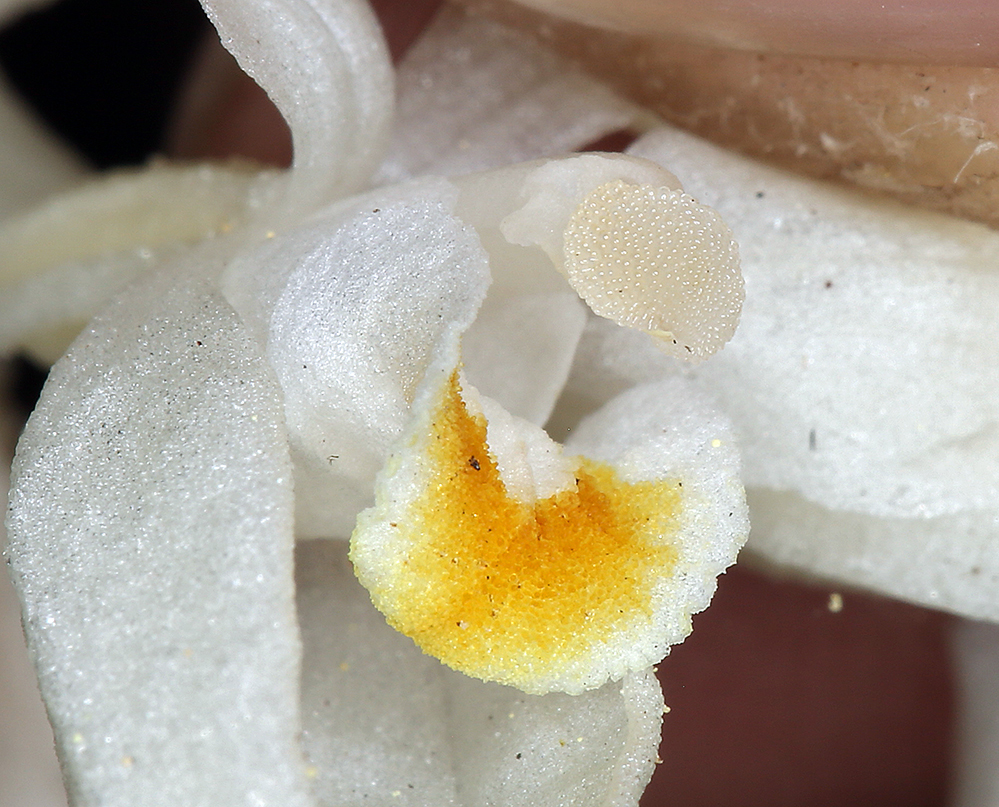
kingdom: Plantae
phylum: Tracheophyta
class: Liliopsida
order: Asparagales
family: Orchidaceae
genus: Cephalanthera
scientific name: Cephalanthera austiniae
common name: Phantom orchid
